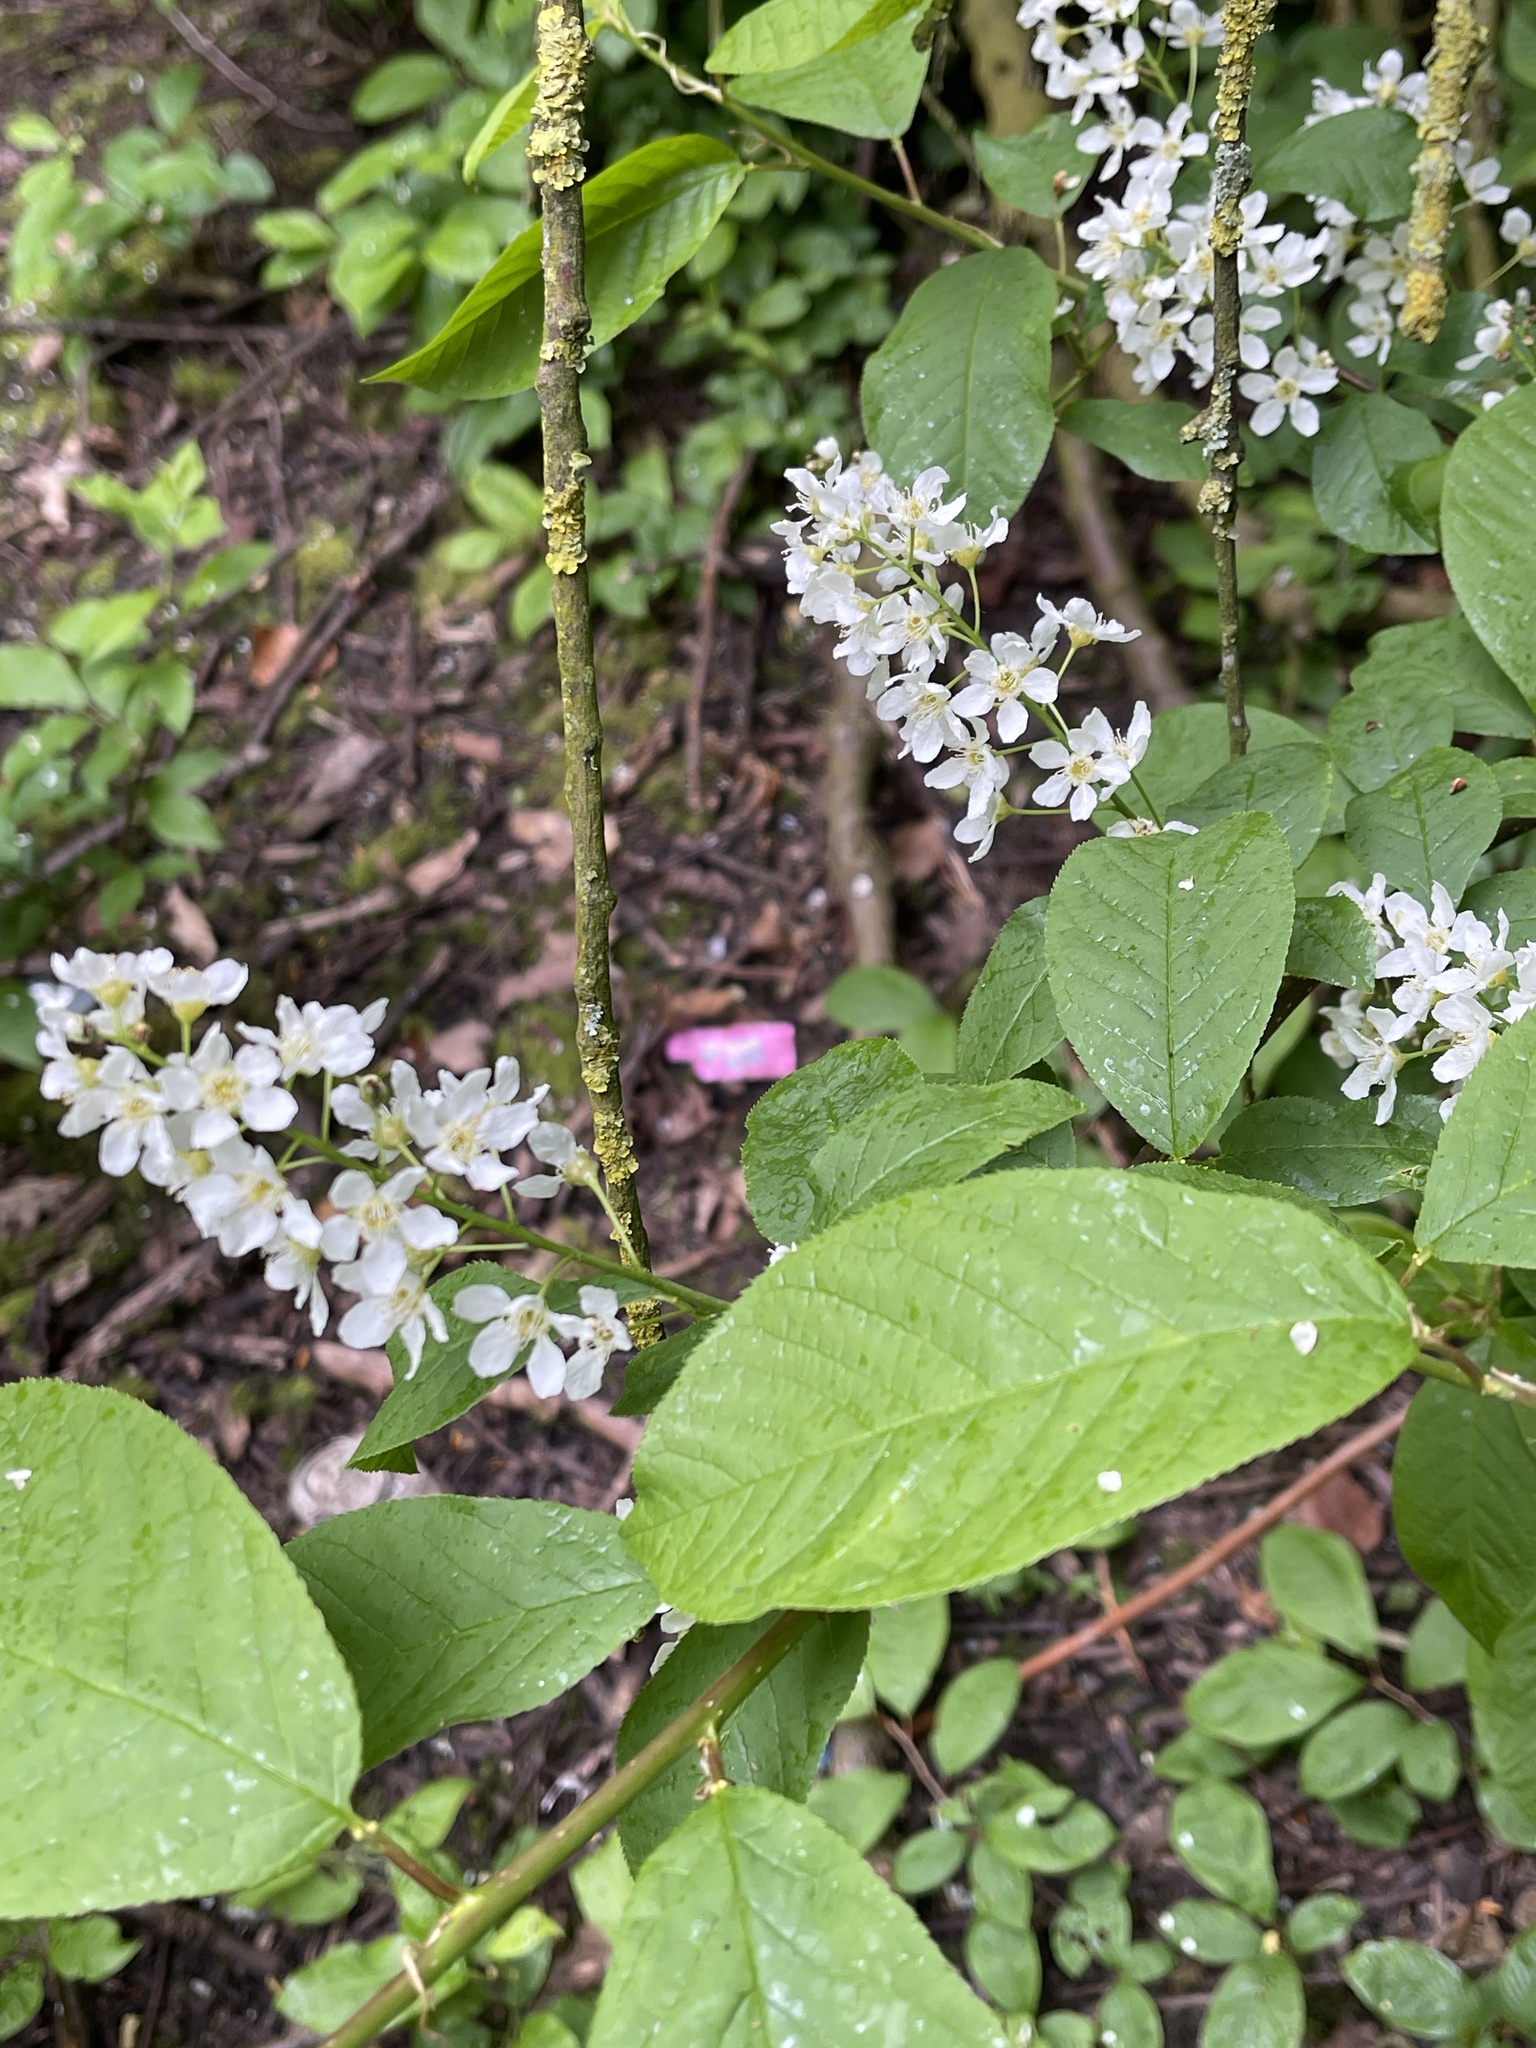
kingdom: Plantae
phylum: Tracheophyta
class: Magnoliopsida
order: Rosales
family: Rosaceae
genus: Prunus
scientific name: Prunus padus
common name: Bird cherry
